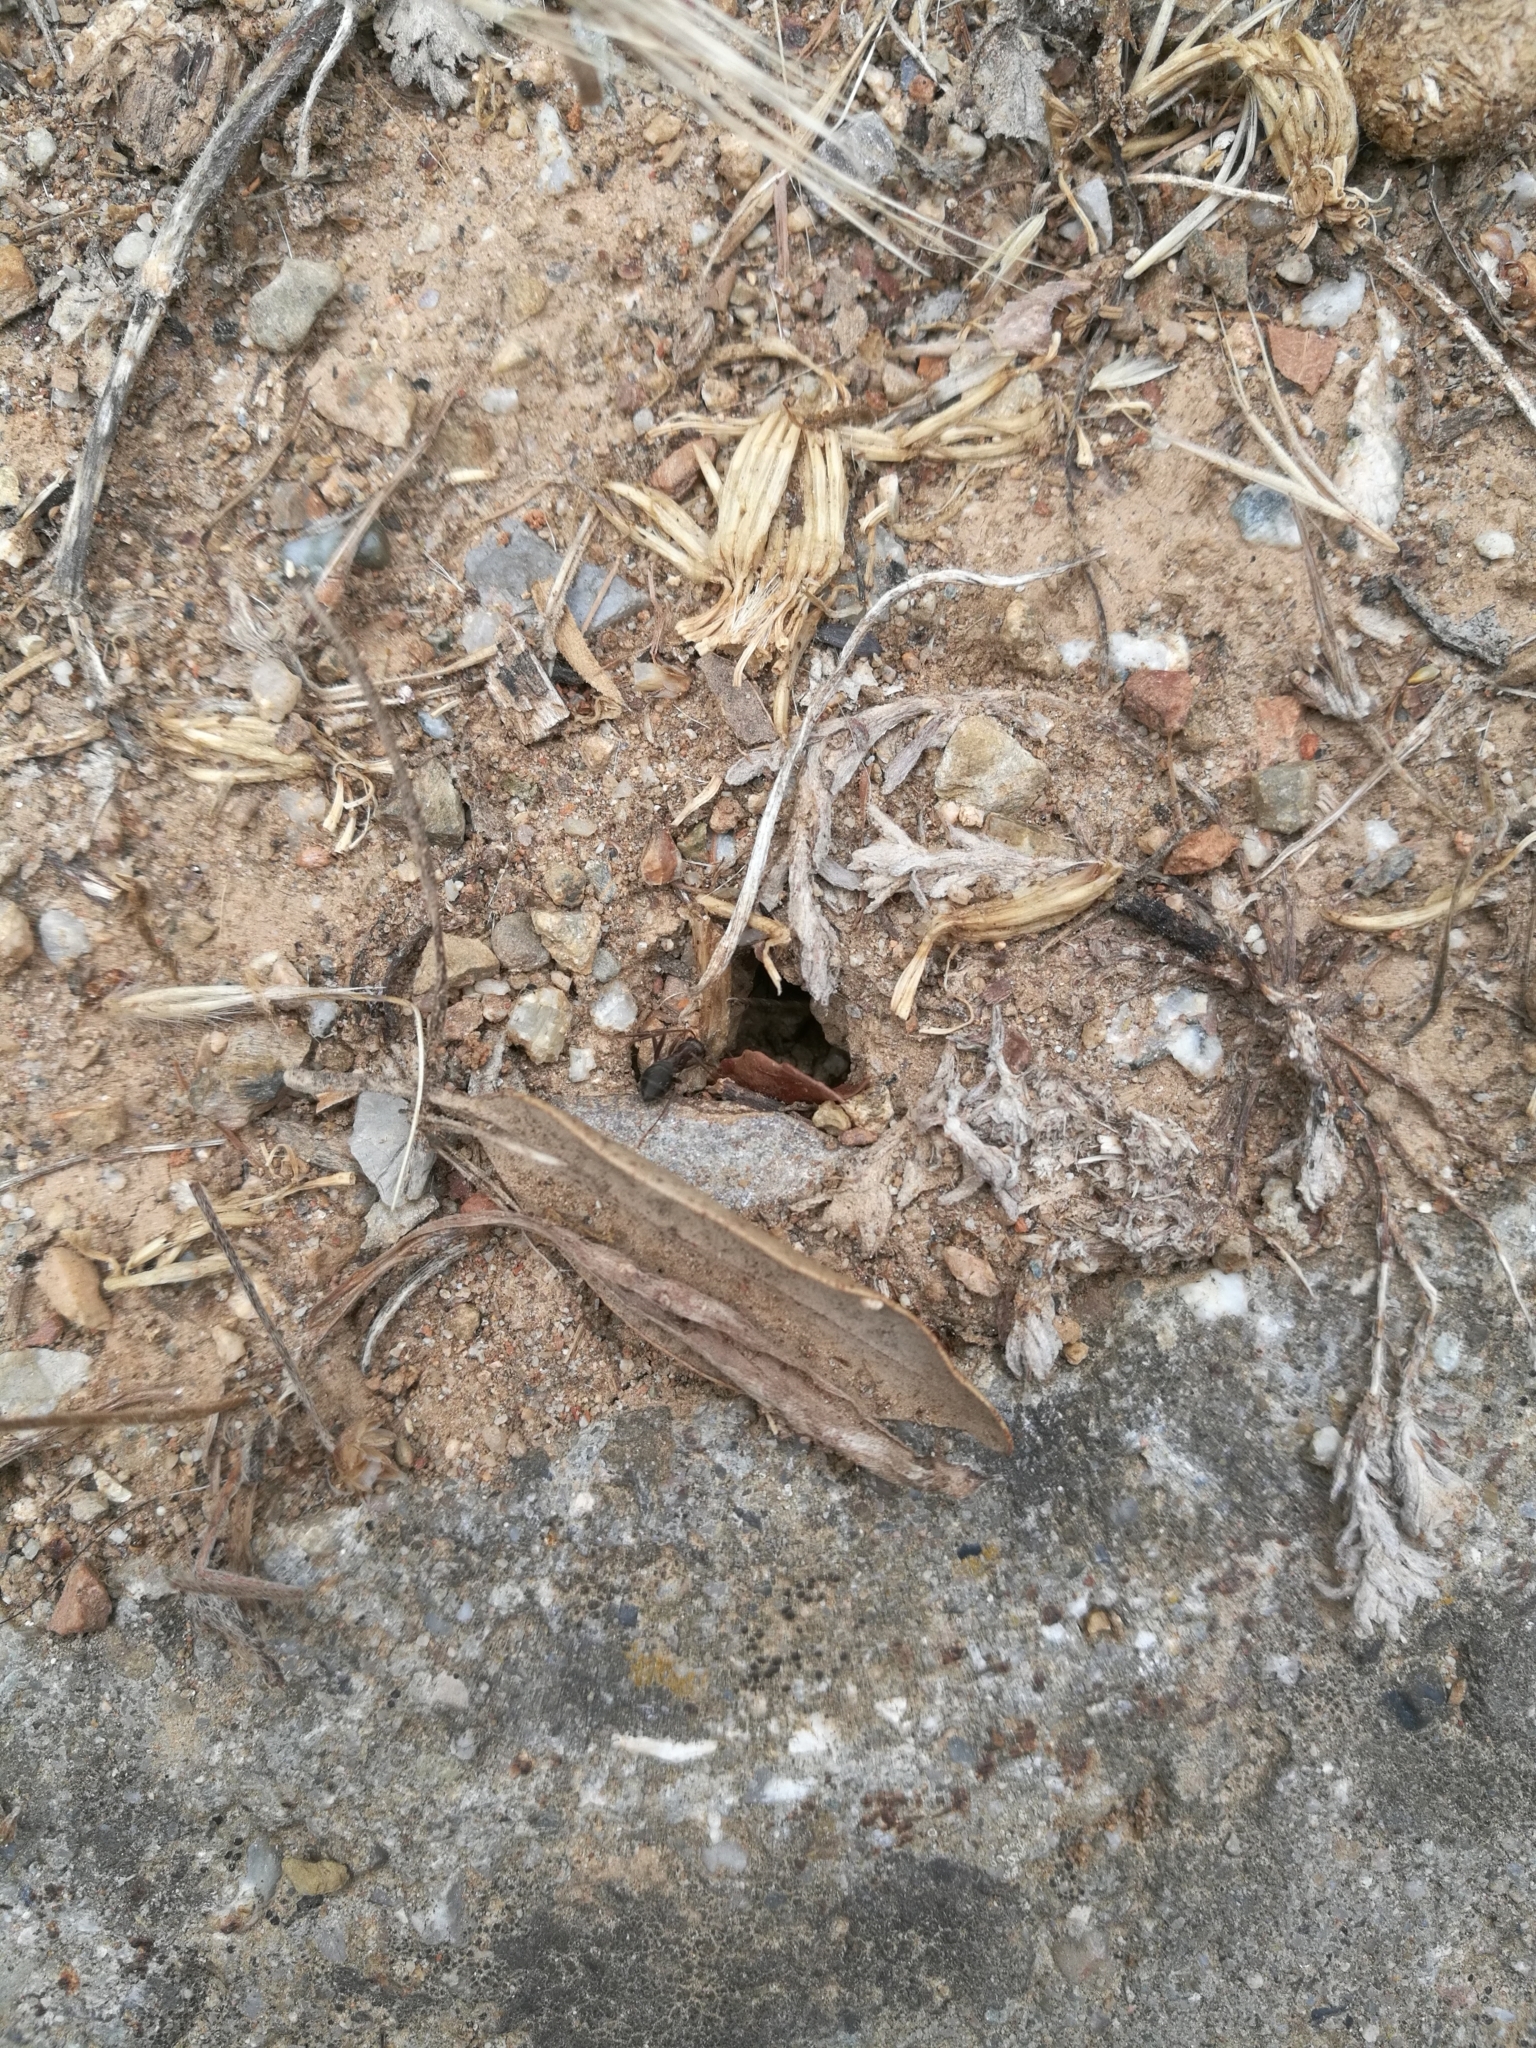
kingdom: Animalia
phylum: Arthropoda
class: Insecta
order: Hymenoptera
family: Formicidae
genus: Formica
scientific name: Formica subrufa
